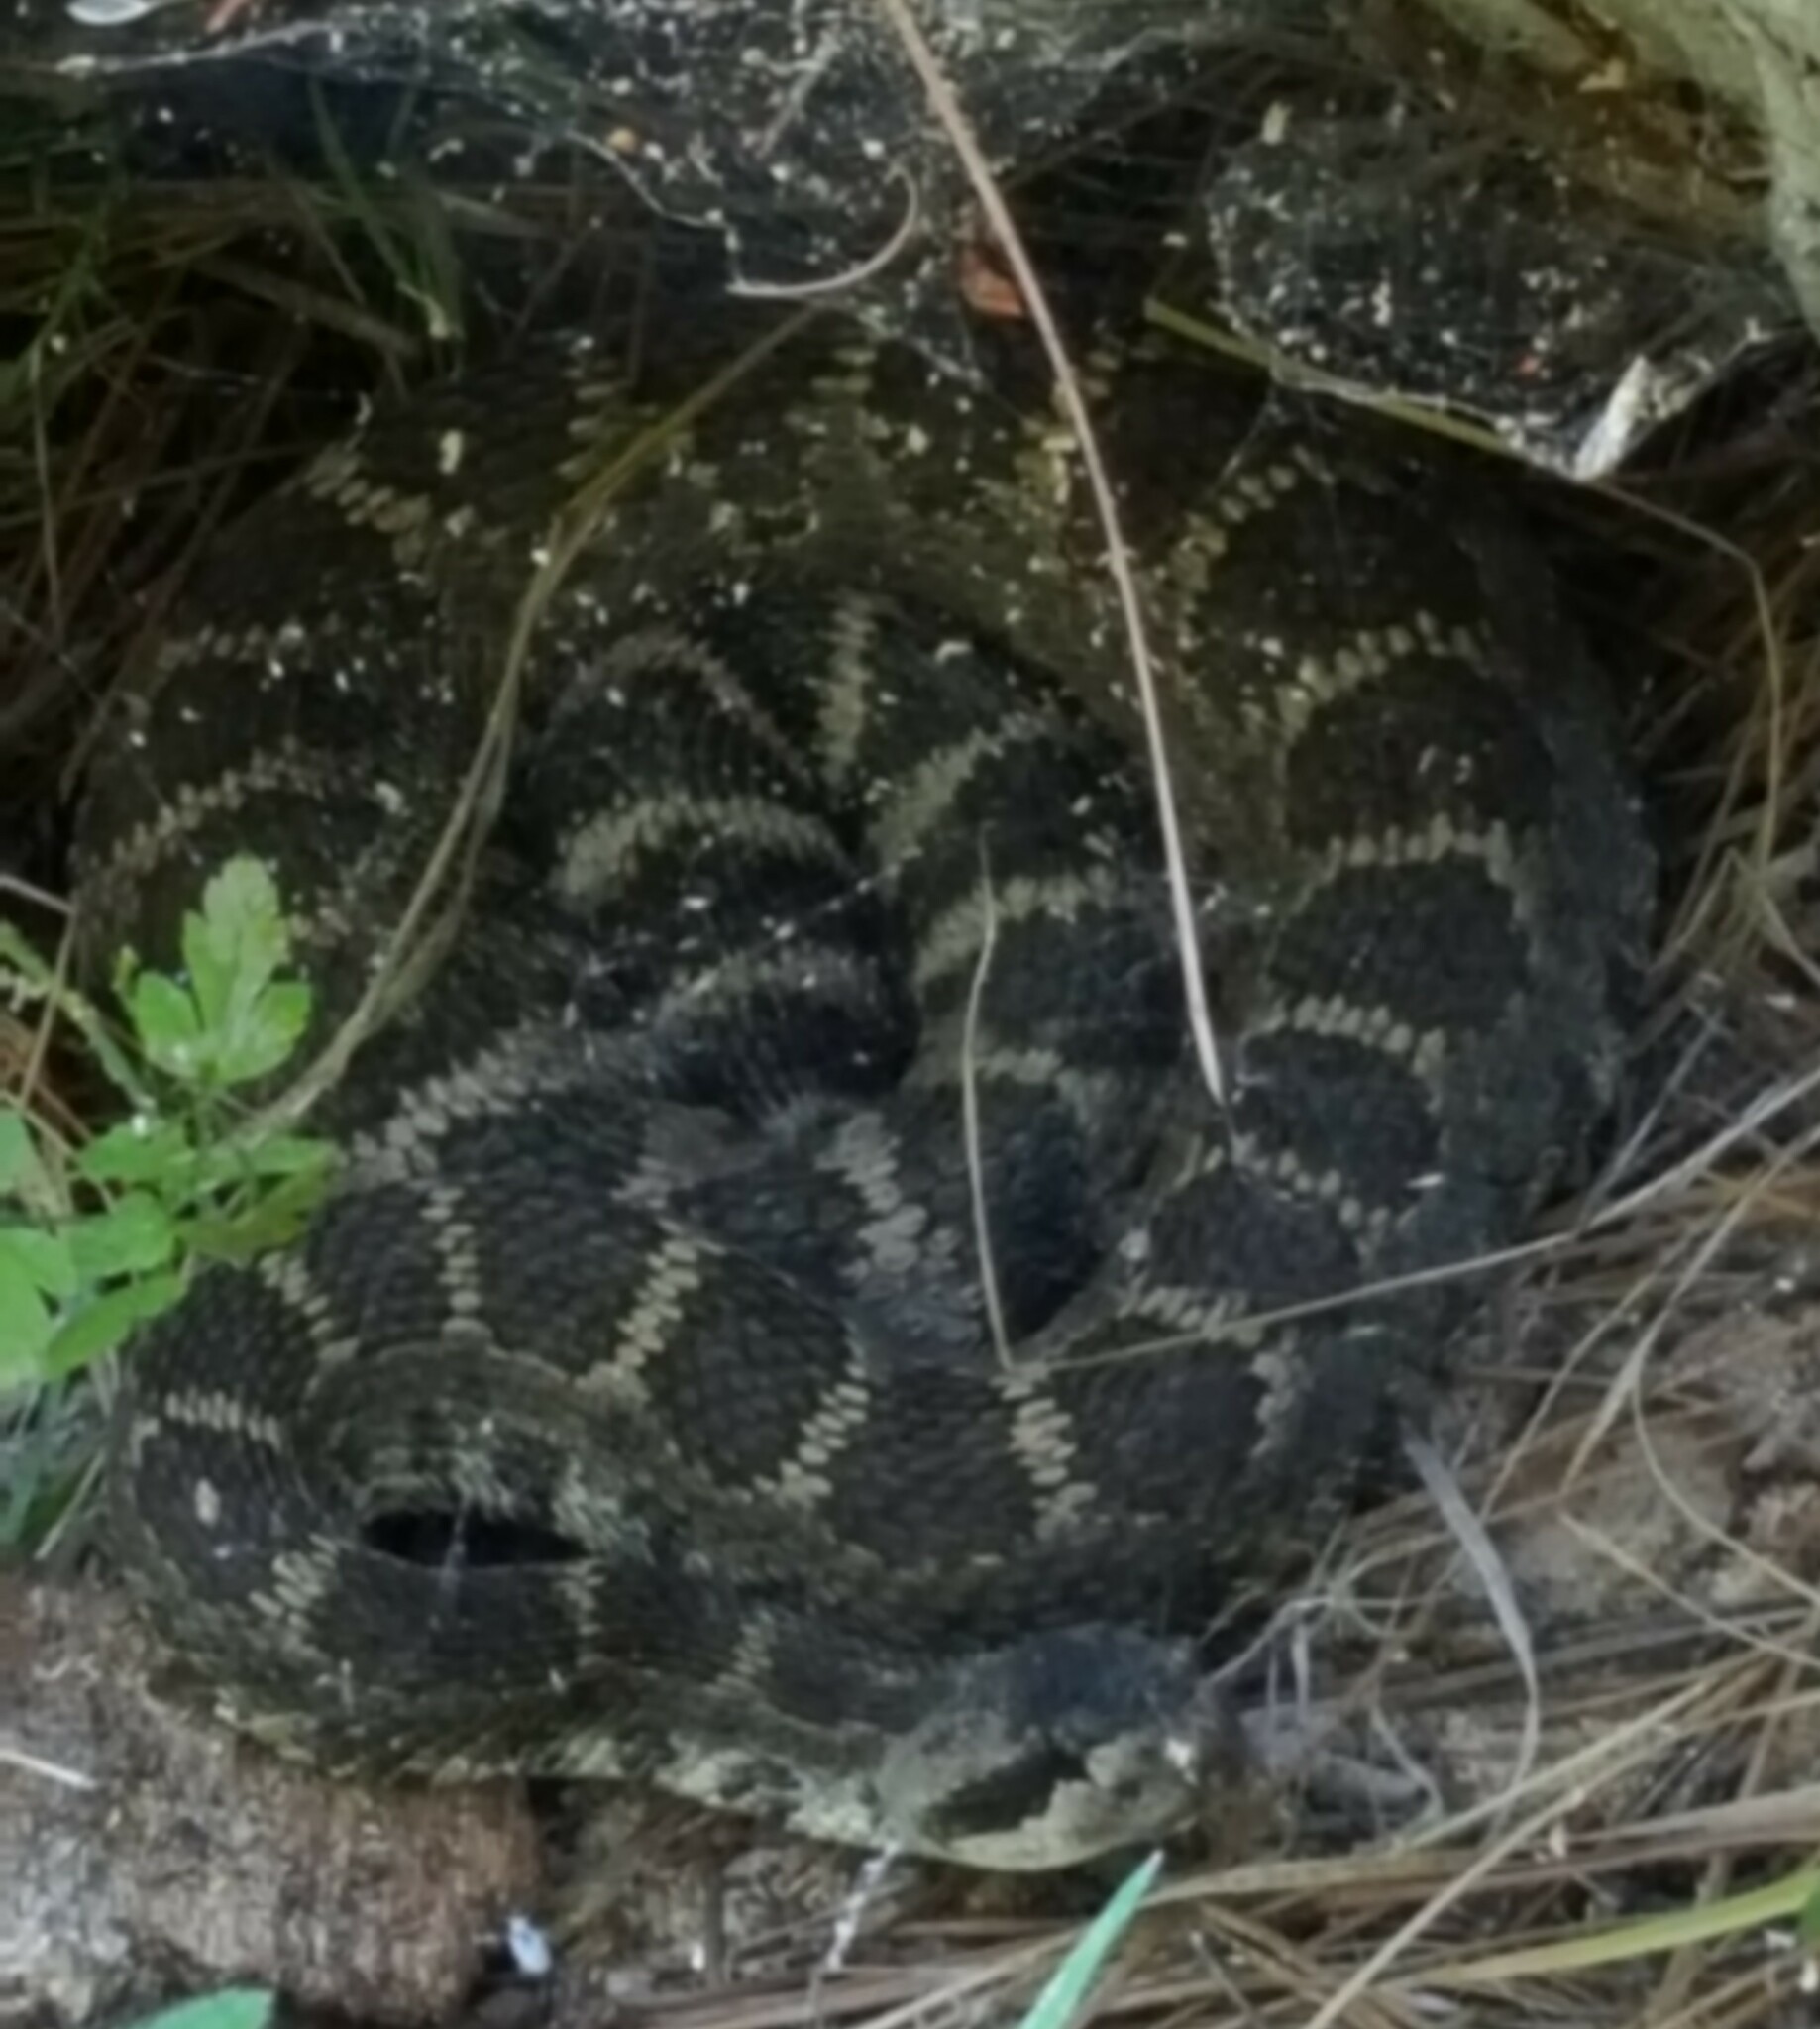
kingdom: Animalia
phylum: Chordata
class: Squamata
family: Viperidae
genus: Crotalus
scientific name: Crotalus oreganus
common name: Abyssus
